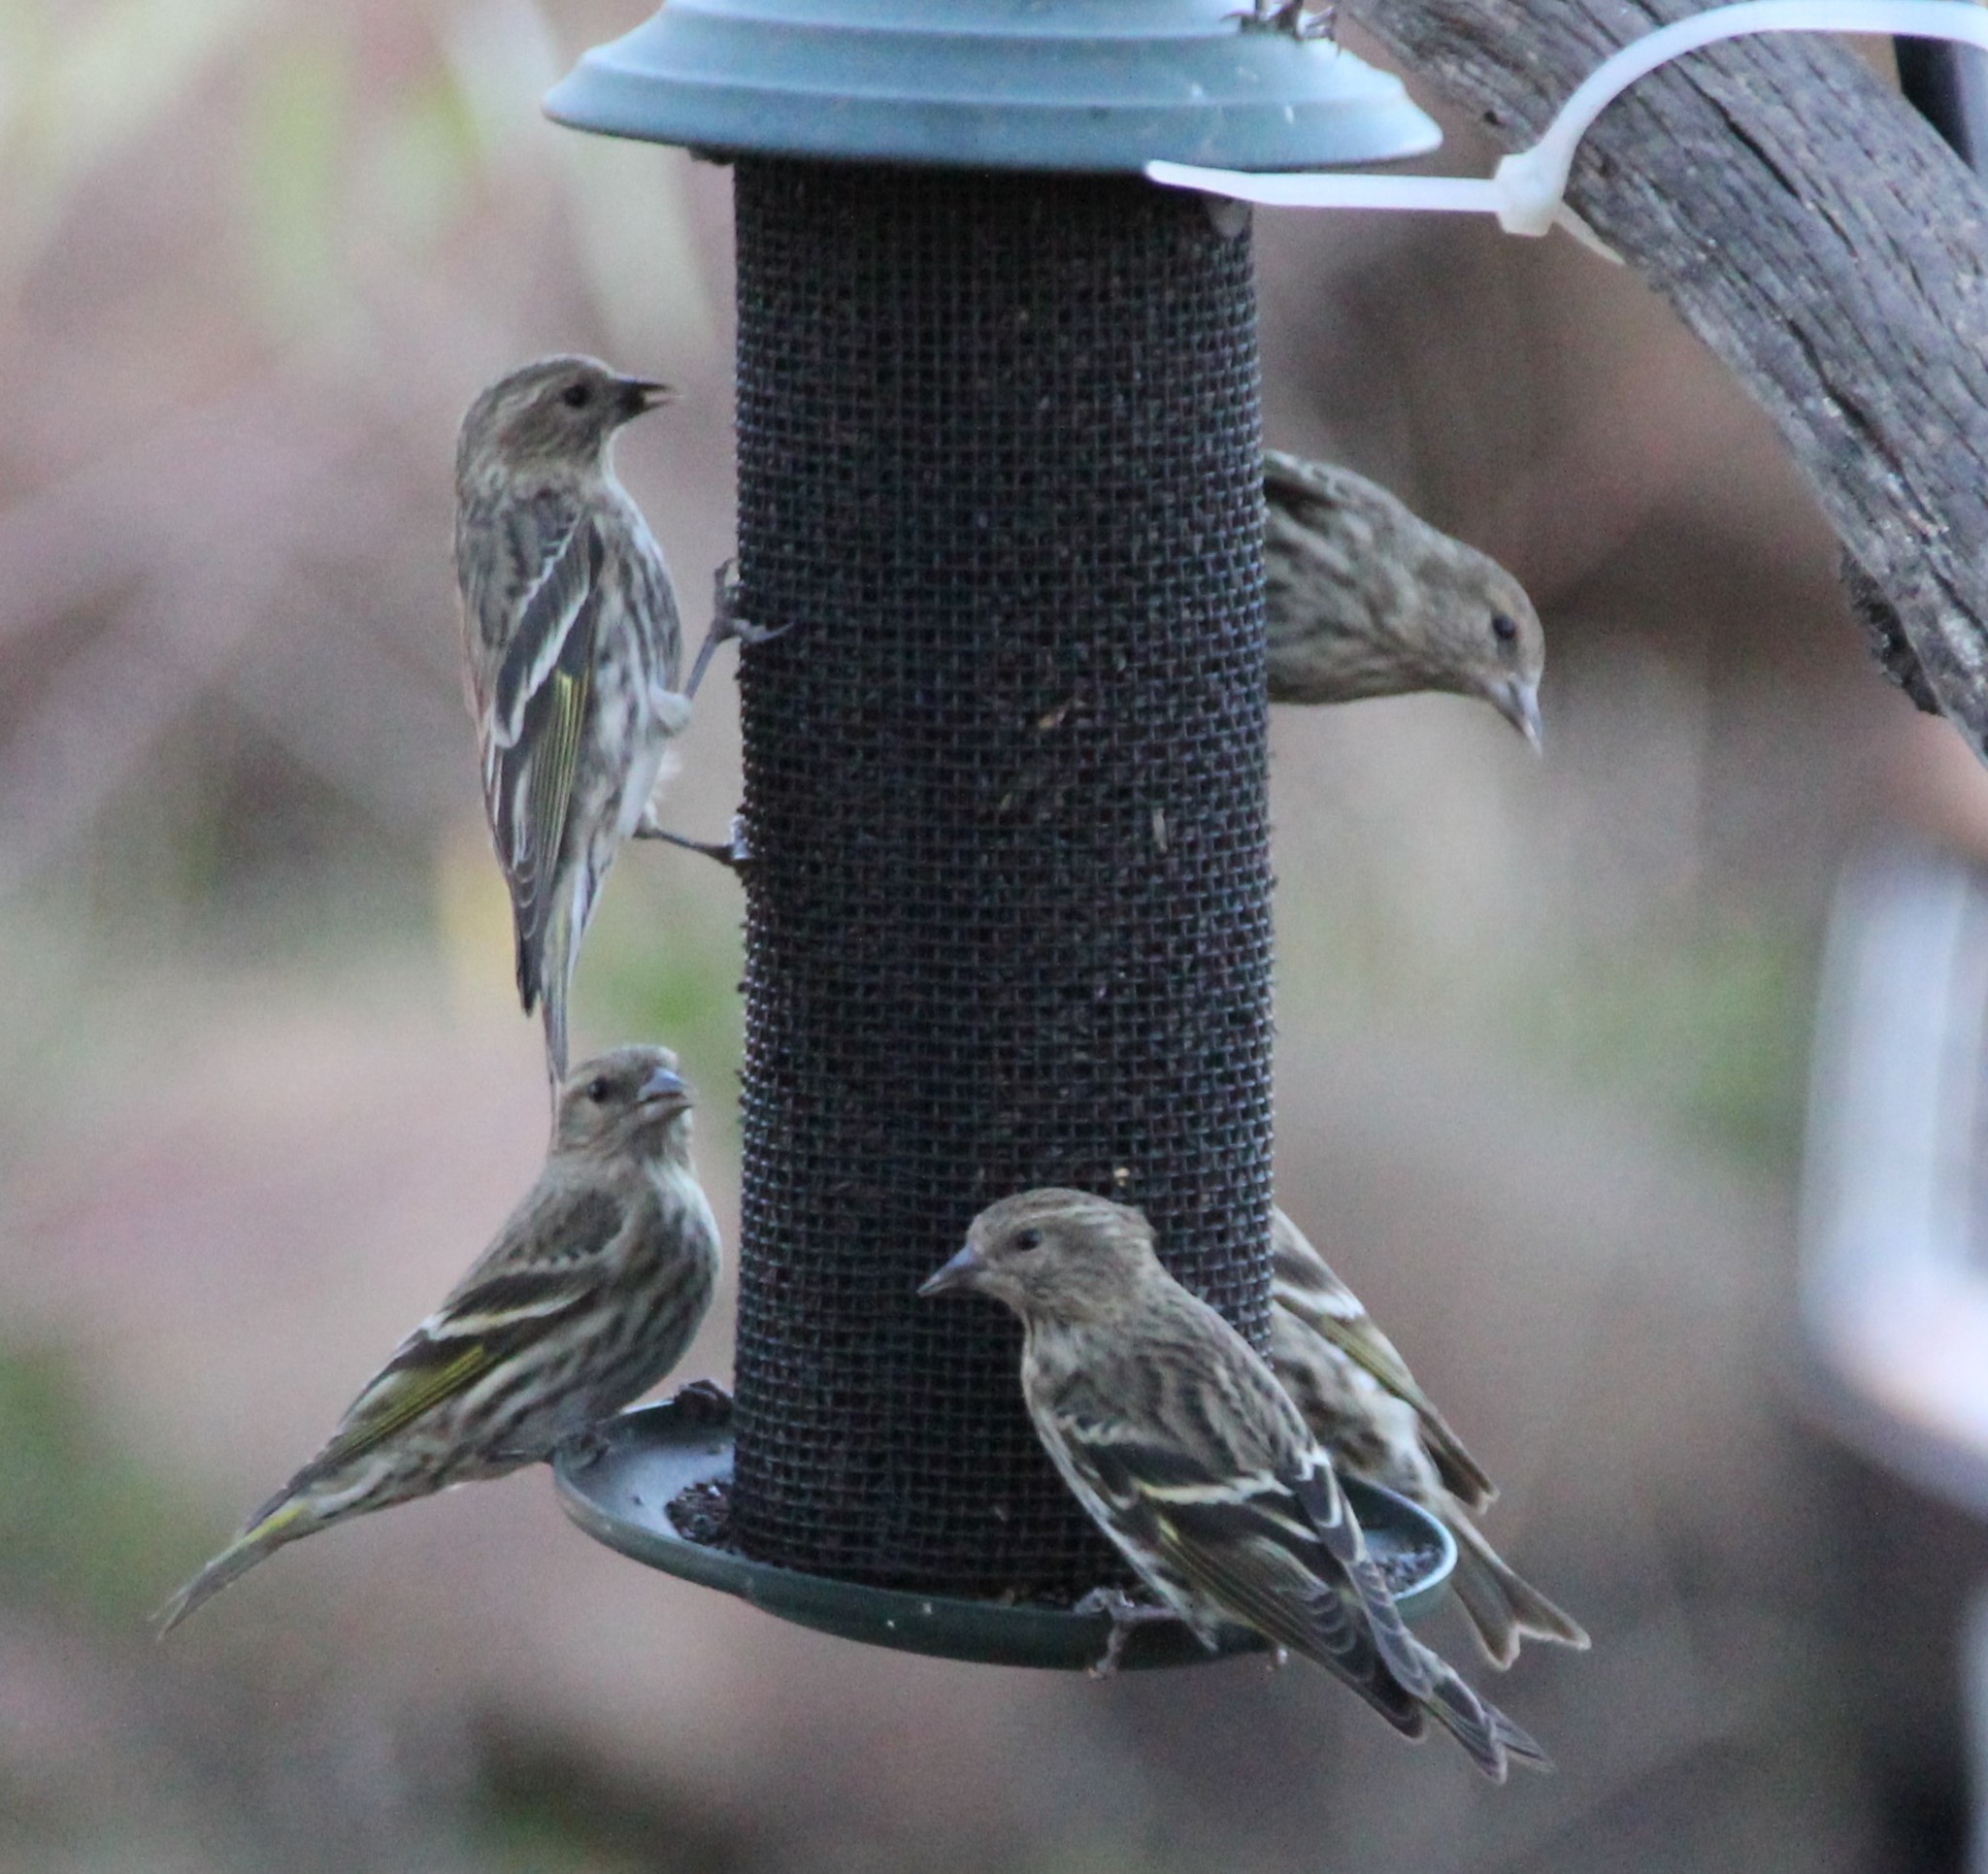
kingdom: Animalia
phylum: Chordata
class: Aves
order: Passeriformes
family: Fringillidae
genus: Spinus
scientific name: Spinus pinus
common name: Pine siskin
